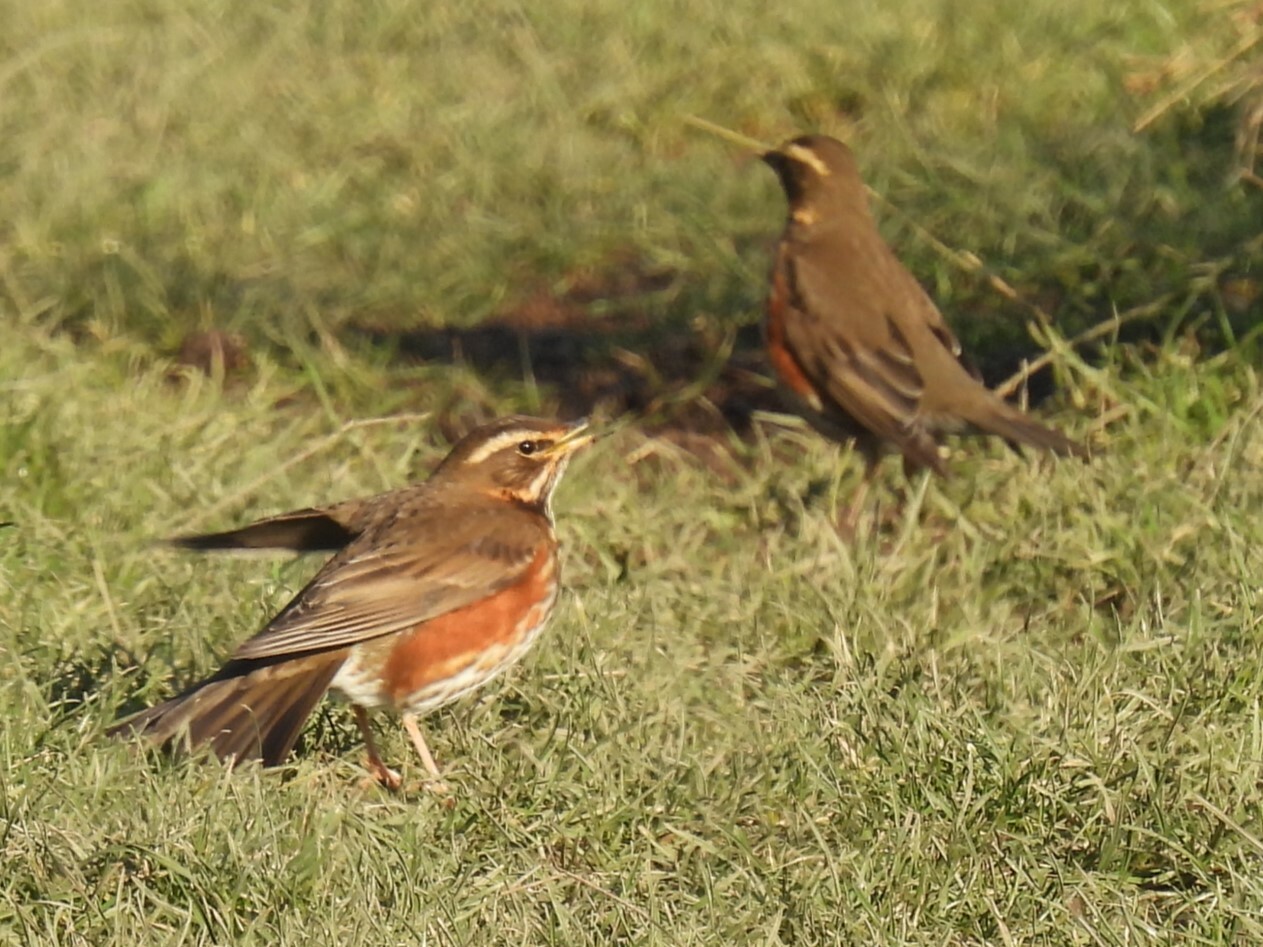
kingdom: Animalia
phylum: Chordata
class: Aves
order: Passeriformes
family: Turdidae
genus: Turdus
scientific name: Turdus iliacus
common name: Redwing
